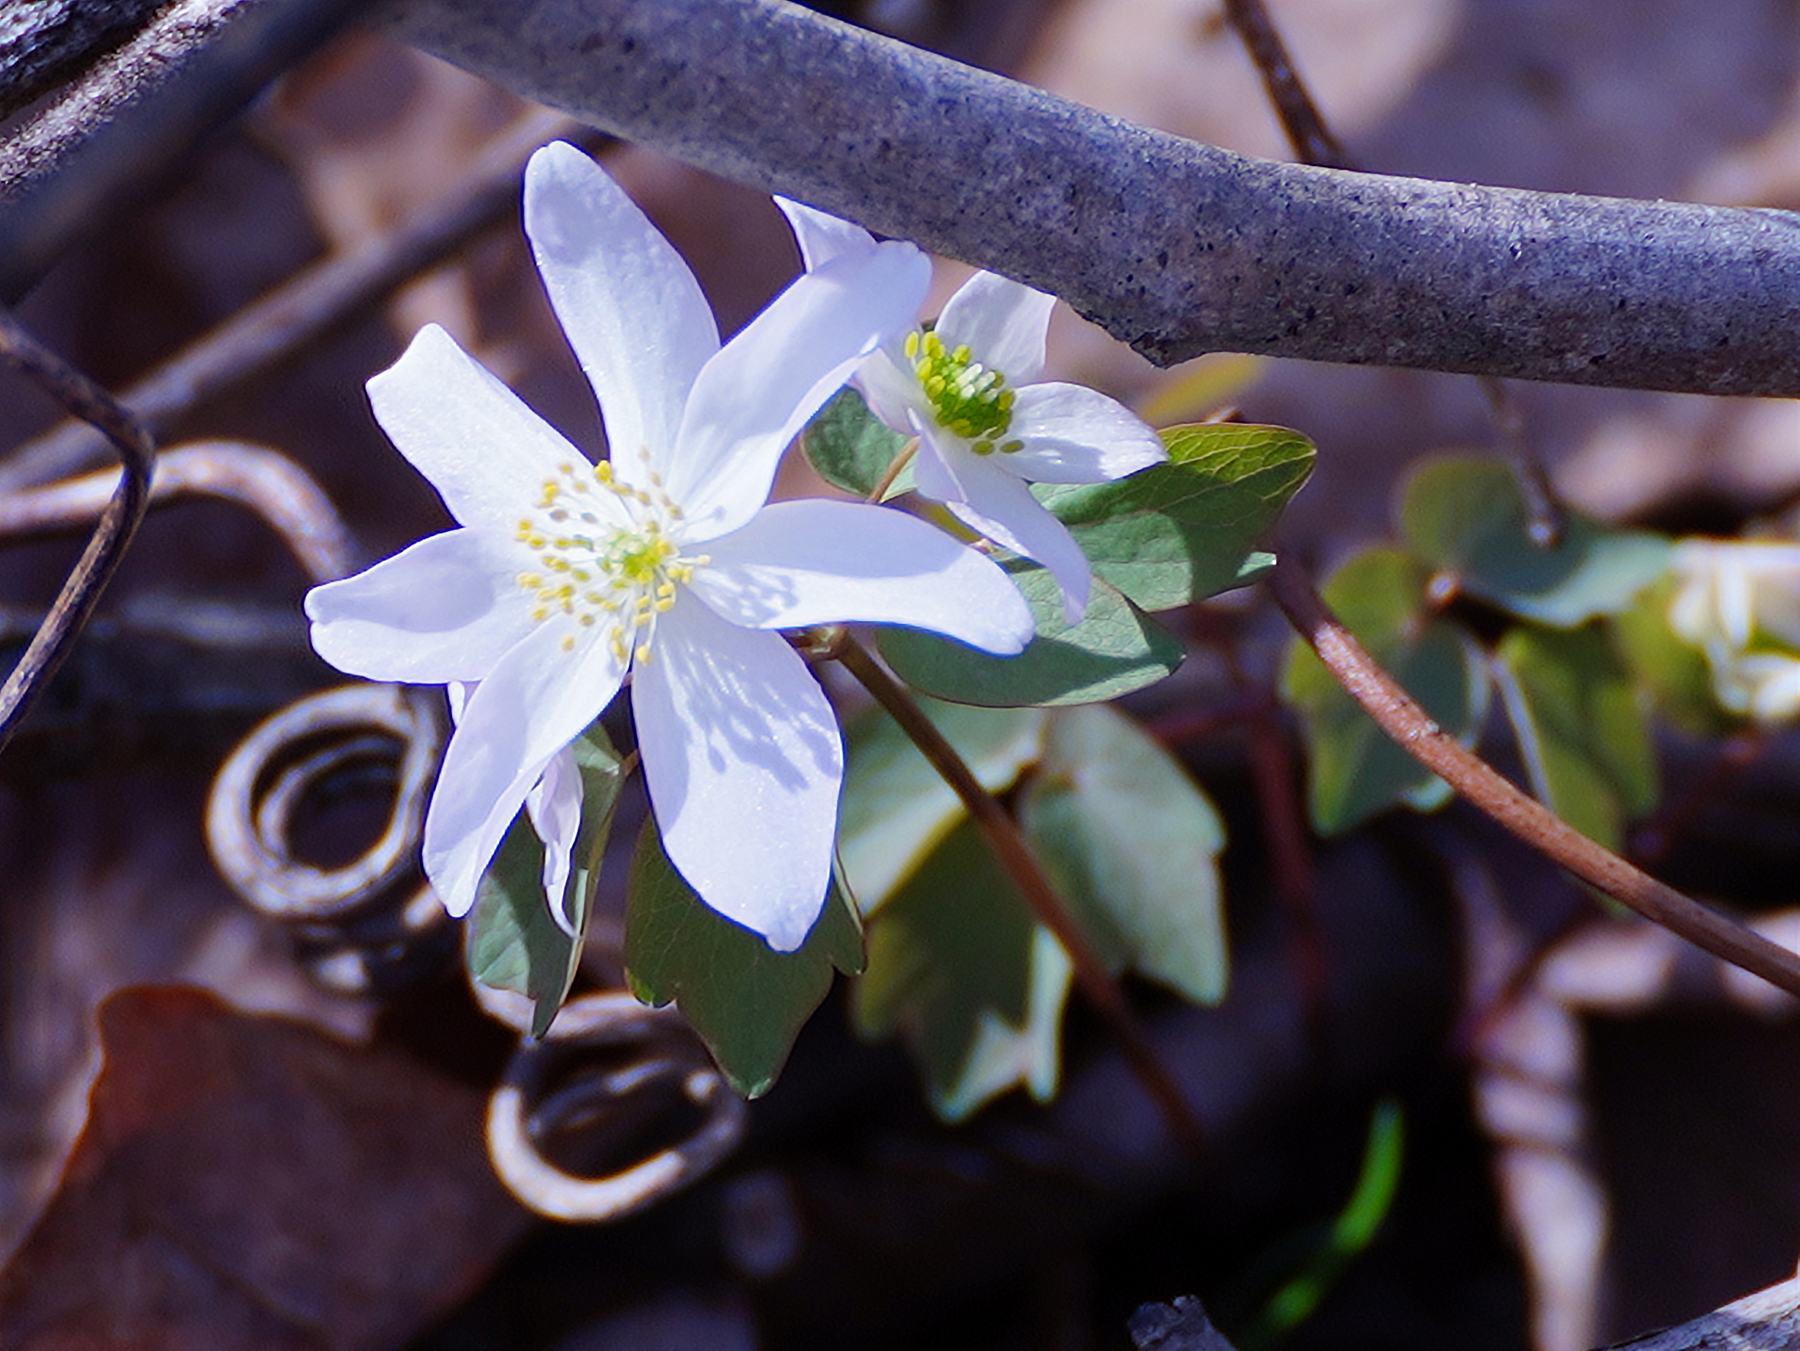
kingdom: Plantae
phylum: Tracheophyta
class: Magnoliopsida
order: Ranunculales
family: Ranunculaceae
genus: Thalictrum
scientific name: Thalictrum thalictroides
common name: Rue-anemone
